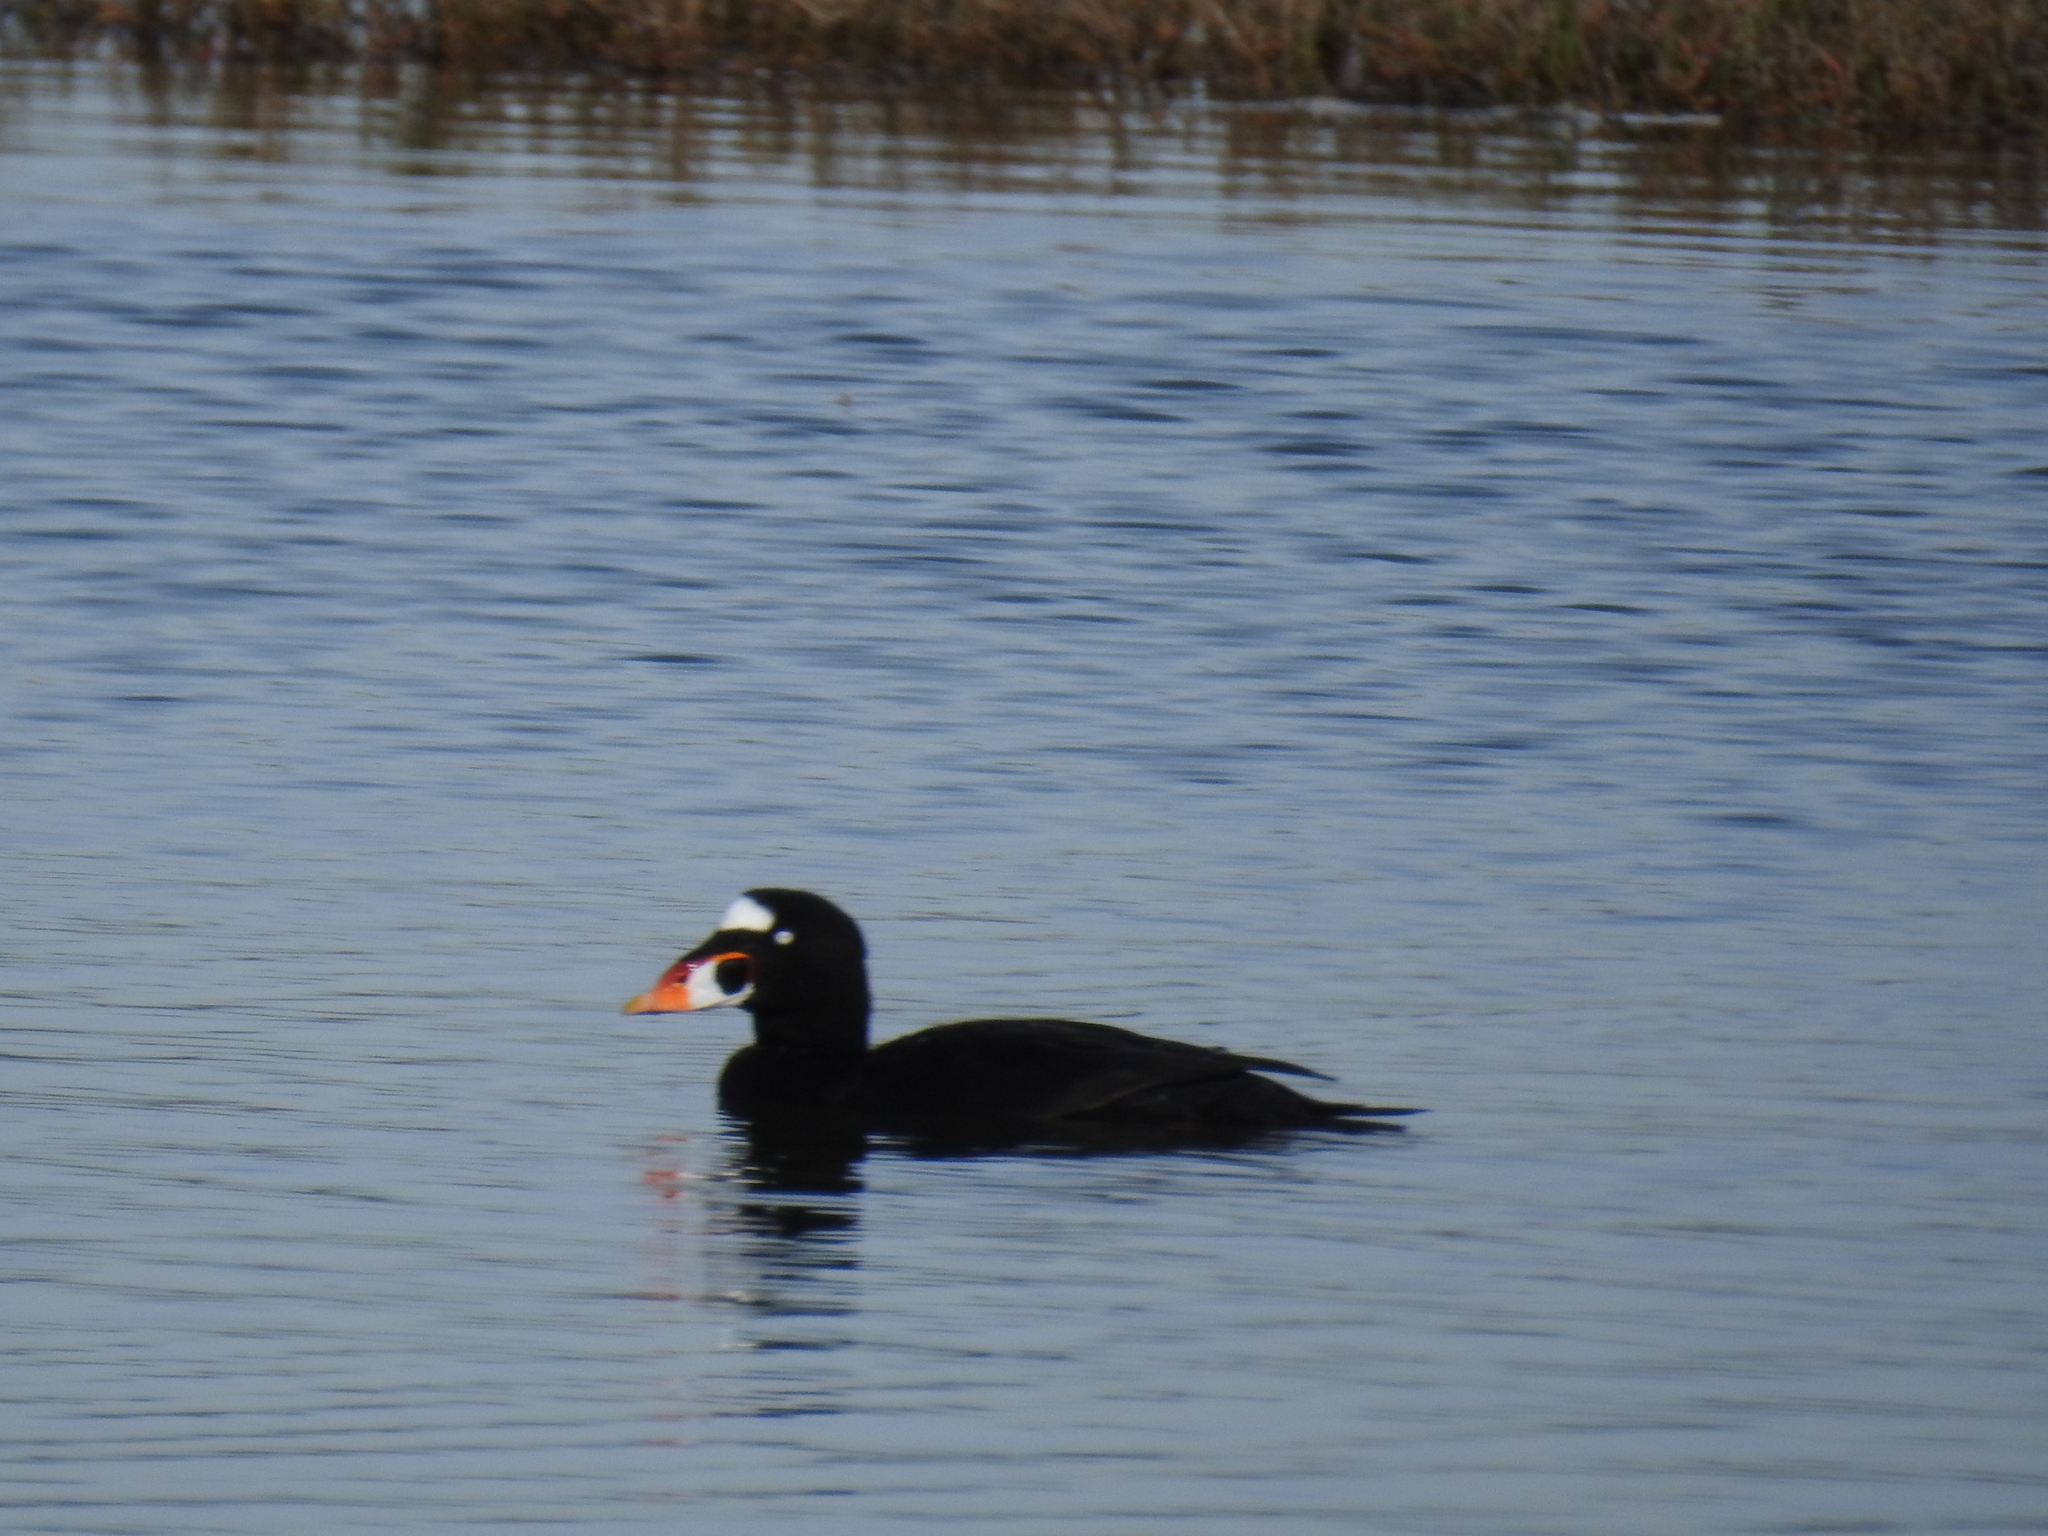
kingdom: Animalia
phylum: Chordata
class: Aves
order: Anseriformes
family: Anatidae
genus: Melanitta
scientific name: Melanitta perspicillata
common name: Surf scoter
